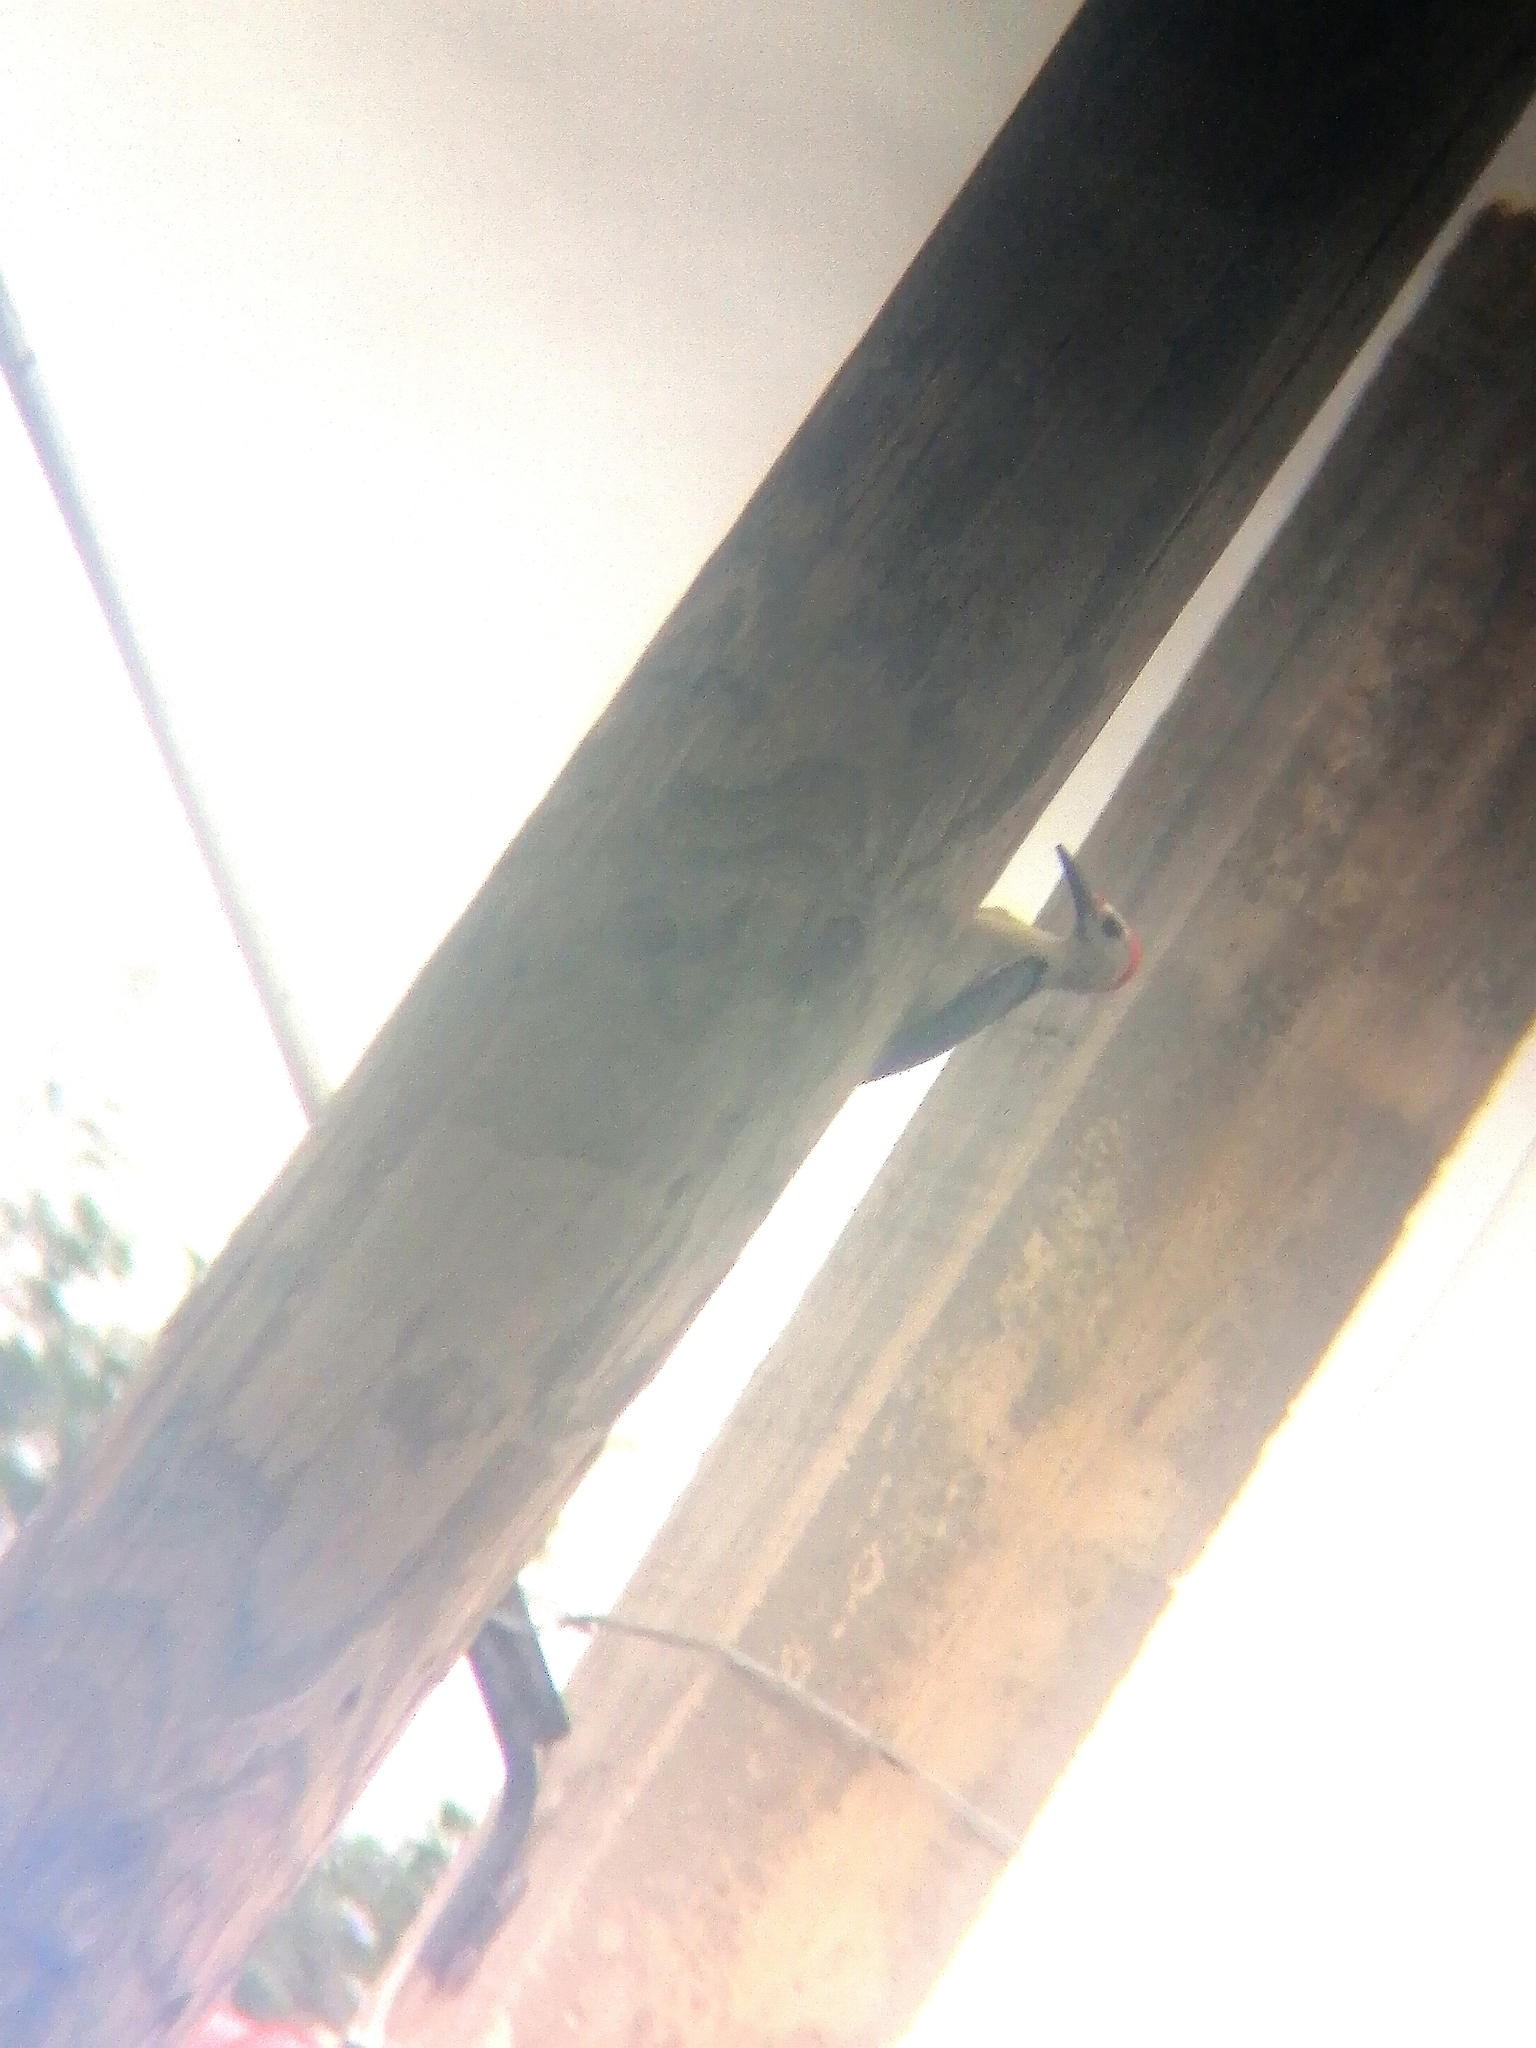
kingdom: Animalia
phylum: Chordata
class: Aves
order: Piciformes
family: Picidae
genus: Melanerpes
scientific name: Melanerpes santacruzi
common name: Velasquez's woodpecker
